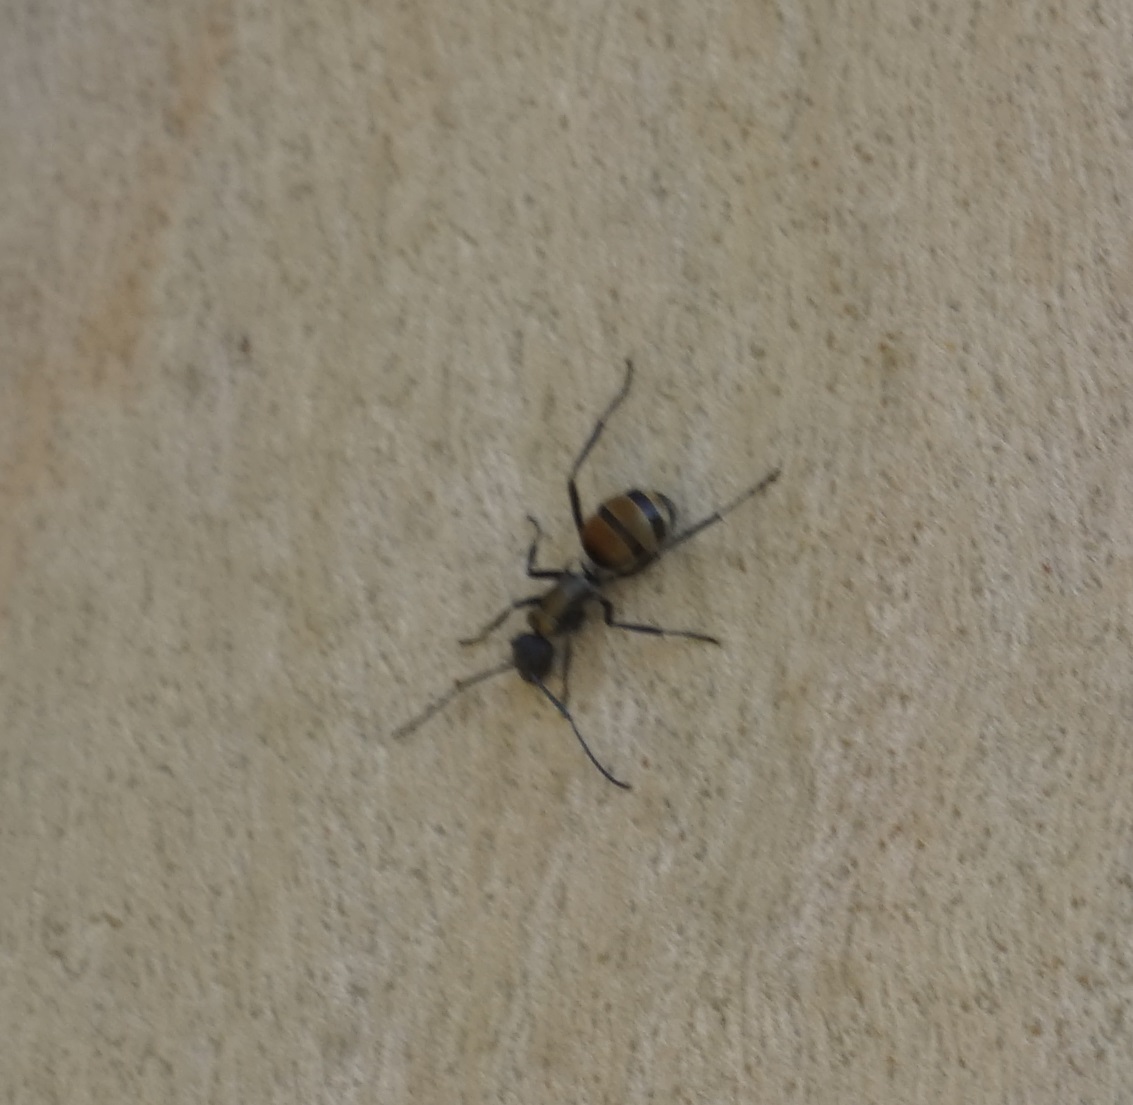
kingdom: Animalia
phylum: Arthropoda
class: Insecta
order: Hymenoptera
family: Formicidae
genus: Polyrhachis
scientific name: Polyrhachis ammon
